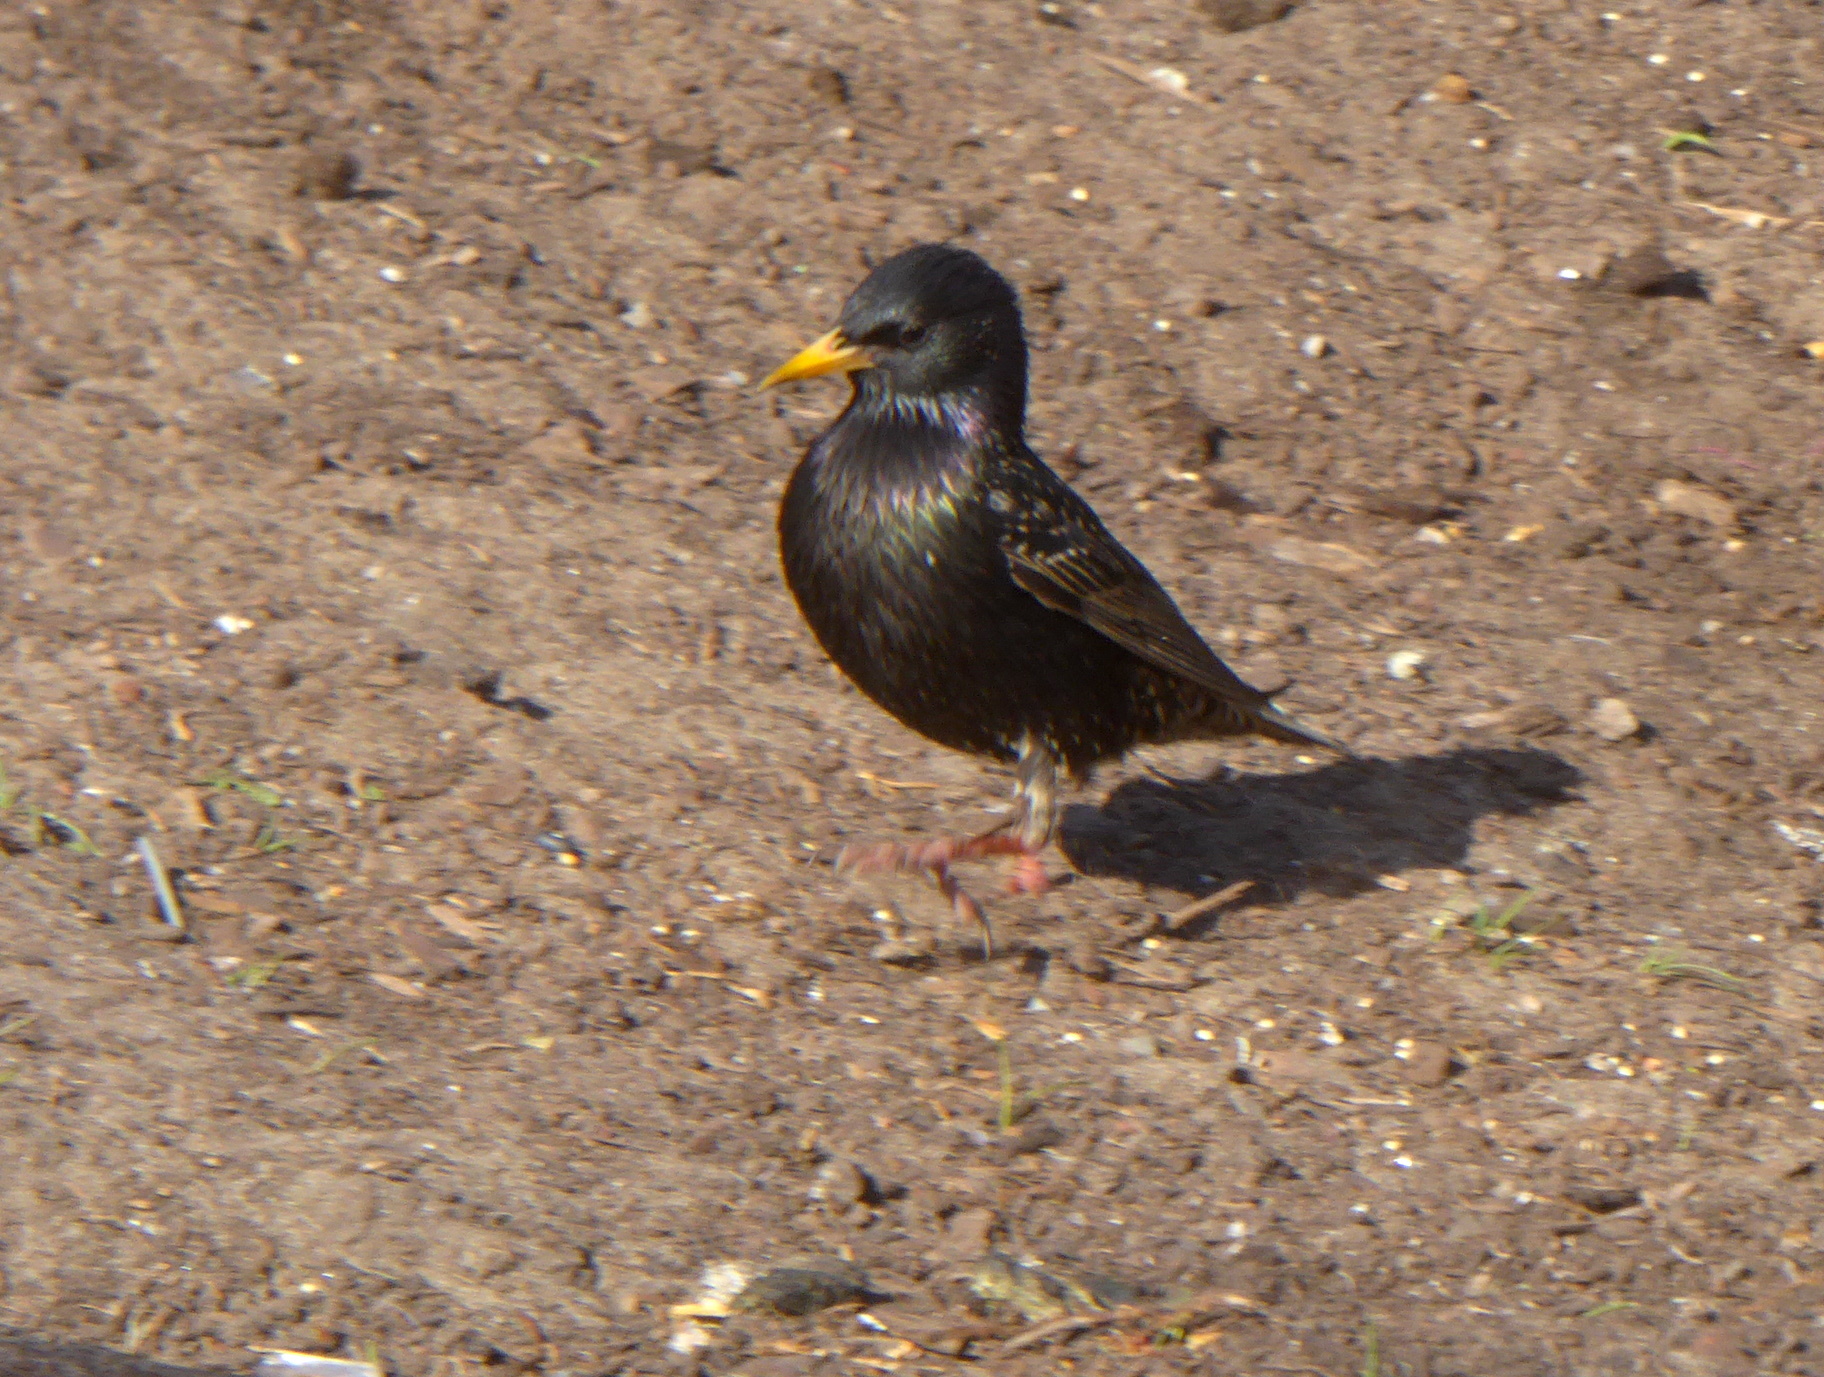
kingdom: Animalia
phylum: Chordata
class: Aves
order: Passeriformes
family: Sturnidae
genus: Sturnus
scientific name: Sturnus vulgaris
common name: Common starling
